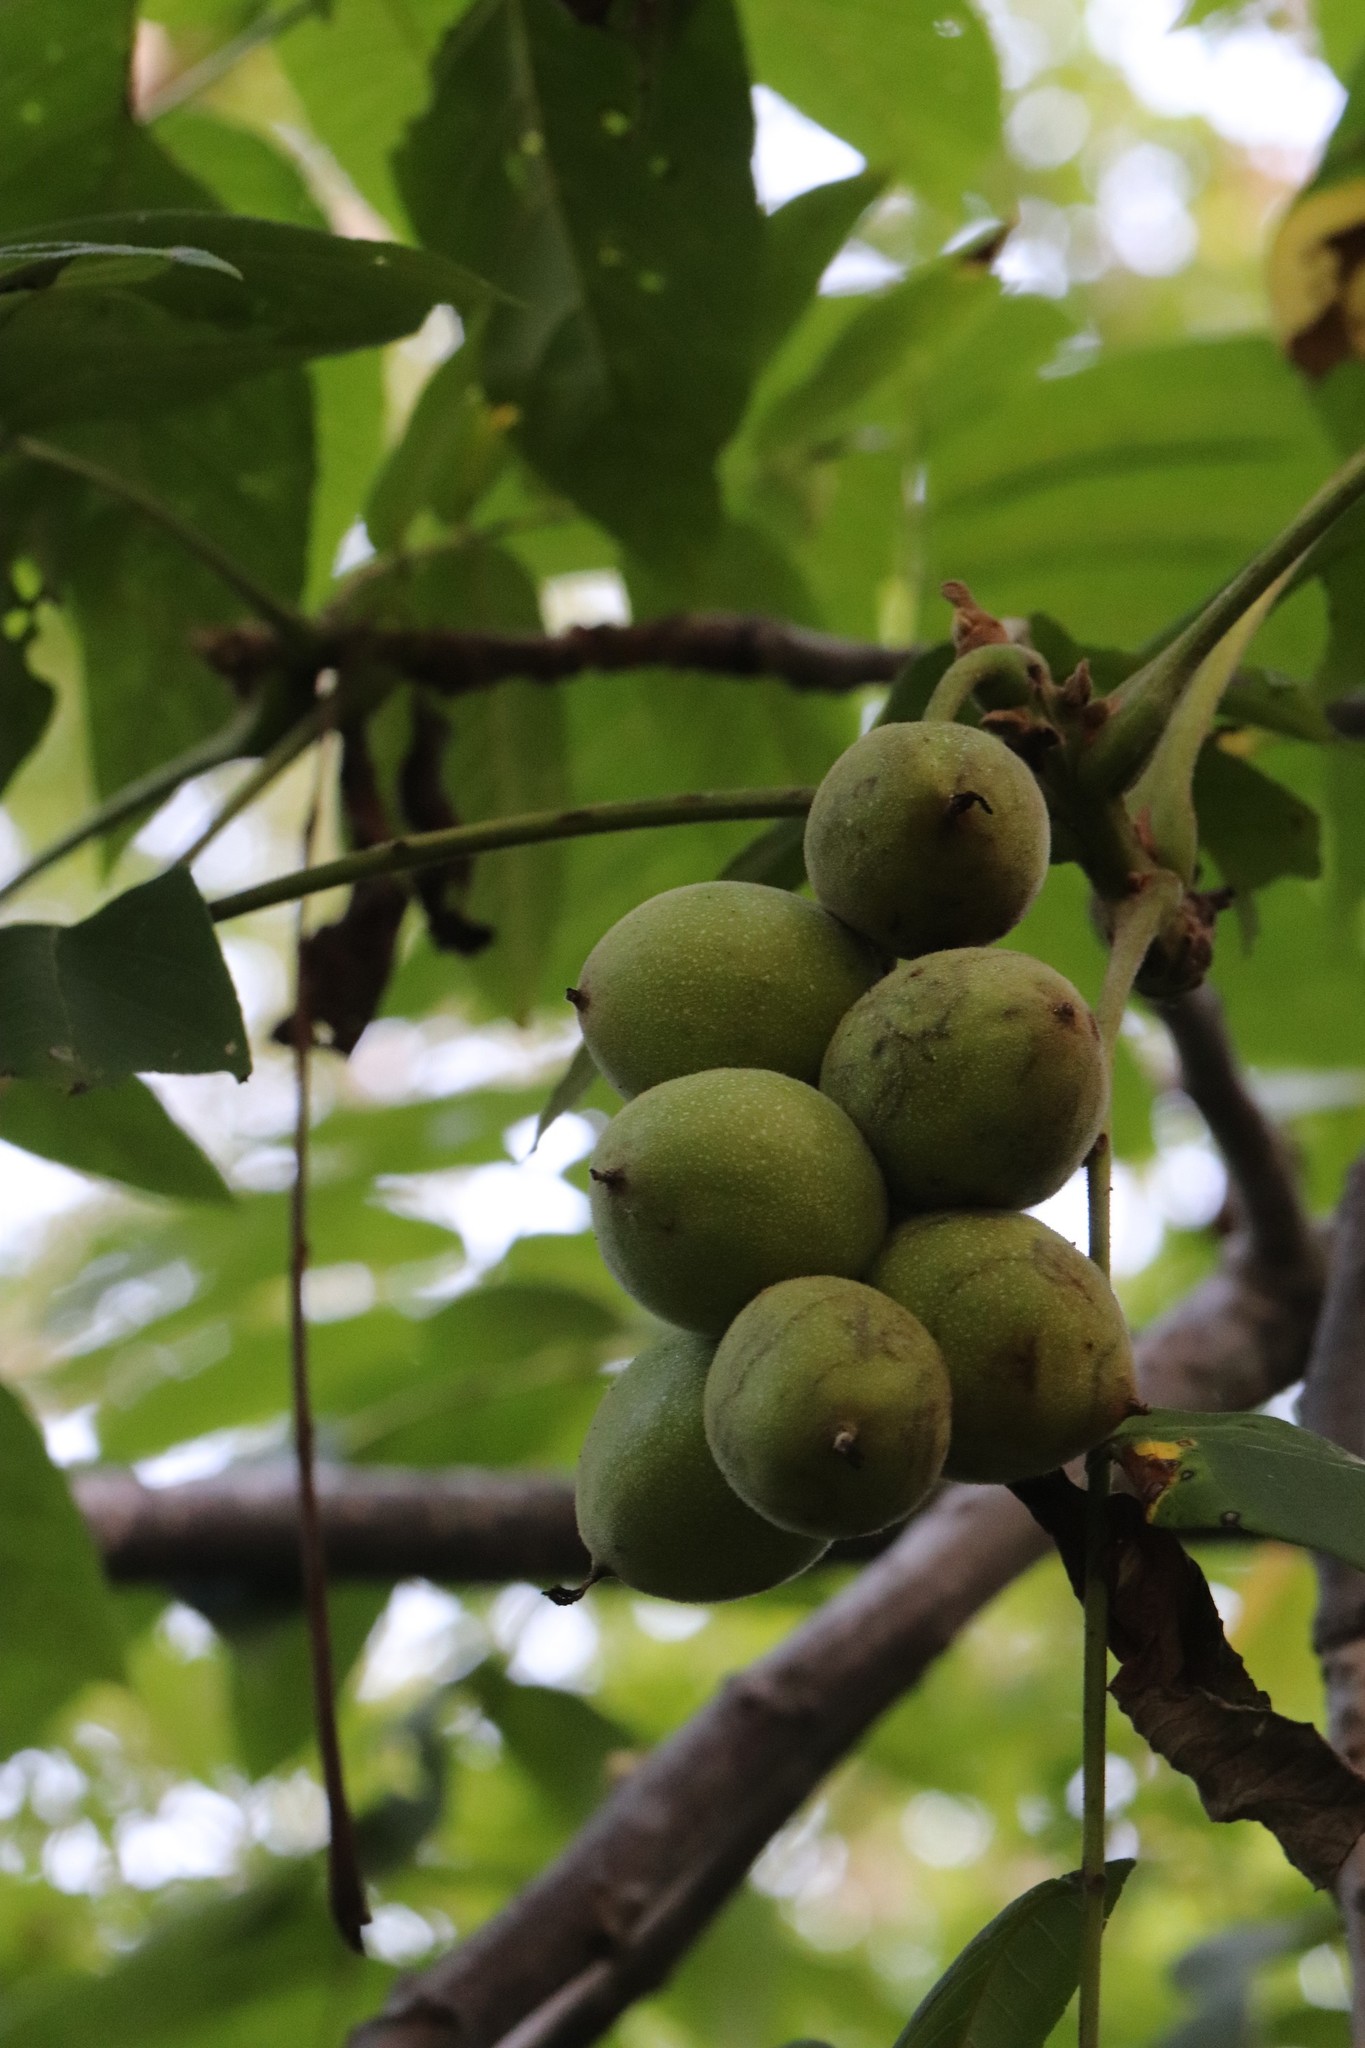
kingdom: Plantae
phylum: Tracheophyta
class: Magnoliopsida
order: Fagales
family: Juglandaceae
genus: Juglans
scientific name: Juglans mandshurica
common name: Manchurian walnut
